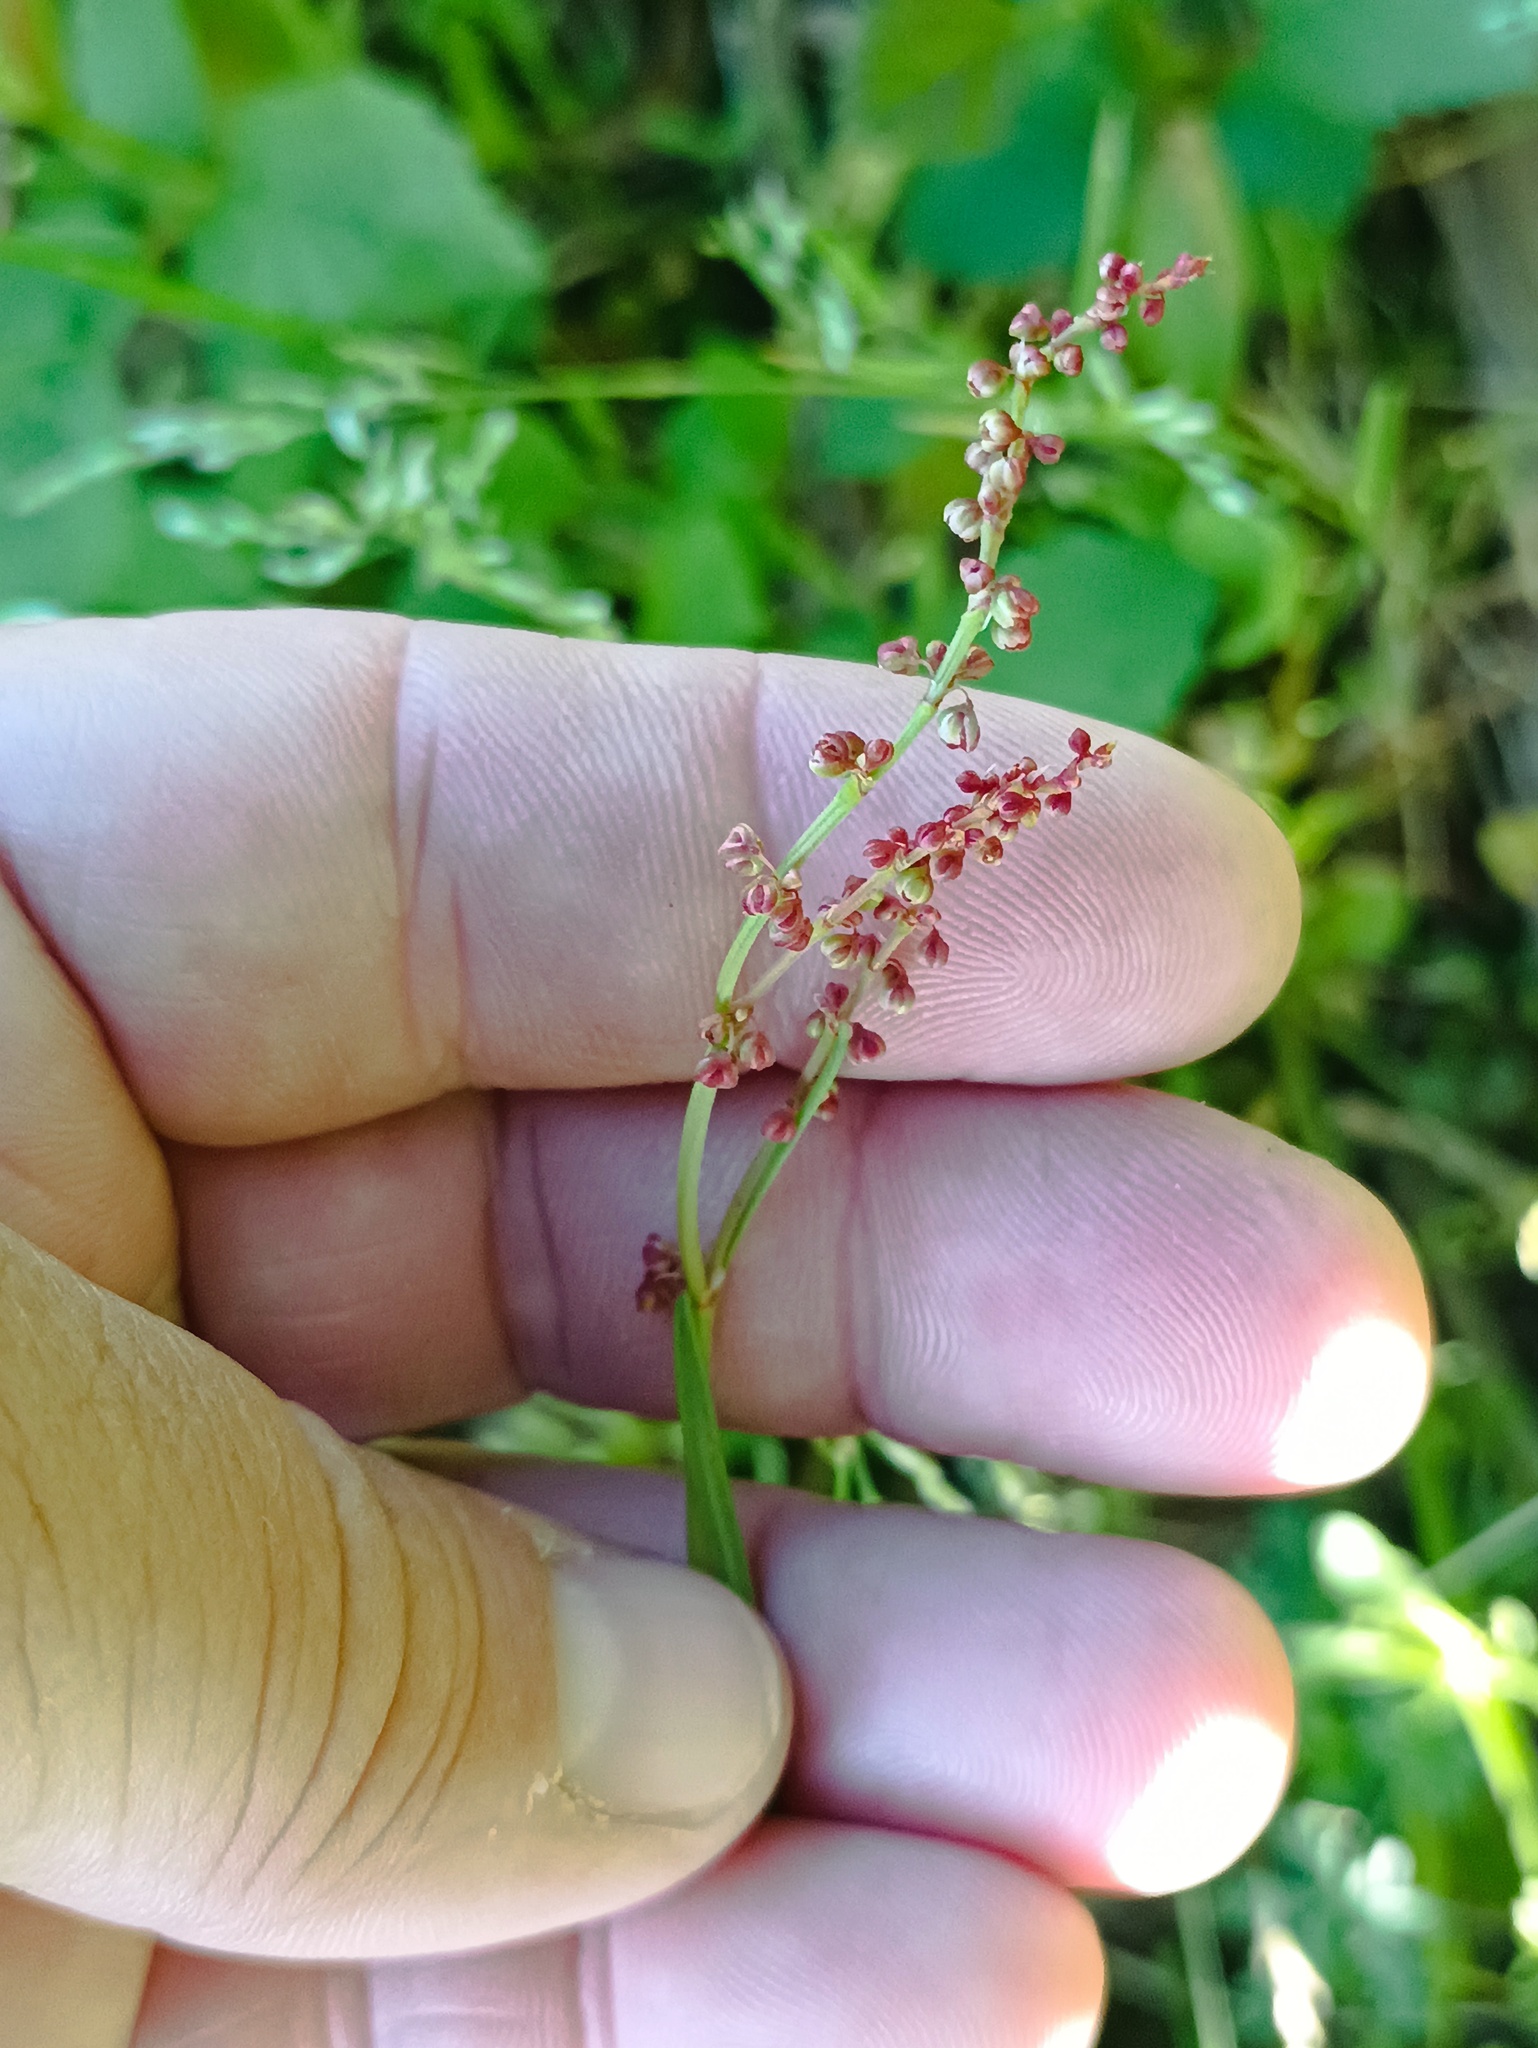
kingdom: Plantae
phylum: Tracheophyta
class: Magnoliopsida
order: Caryophyllales
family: Polygonaceae
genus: Rumex
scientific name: Rumex acetosella
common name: Common sheep sorrel
